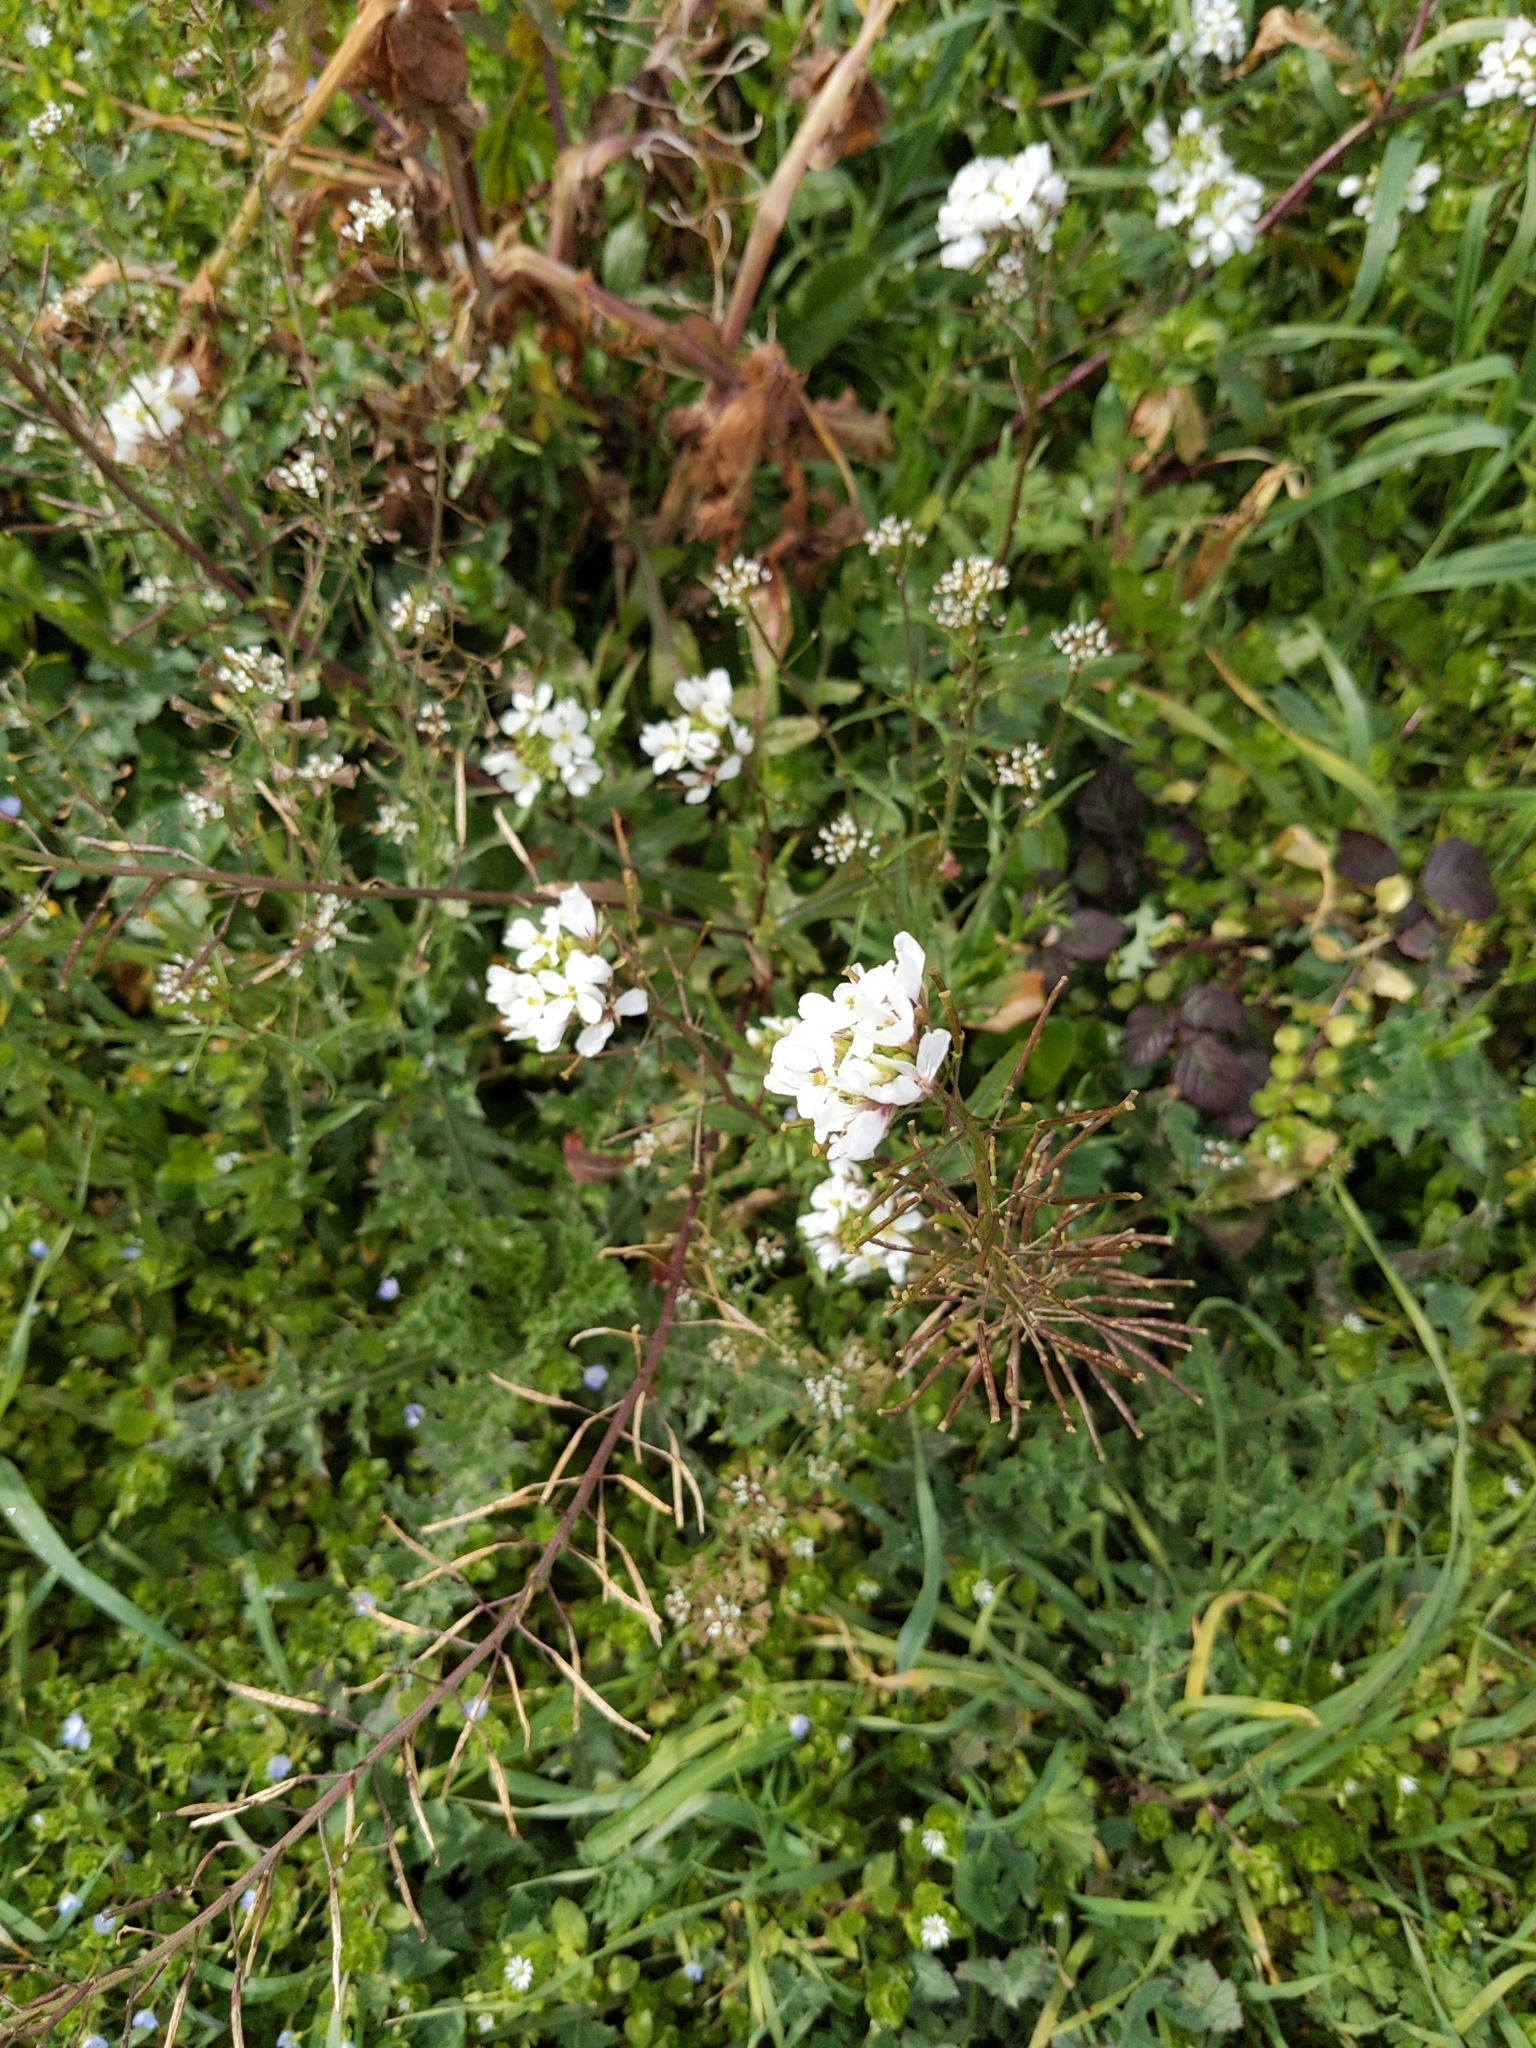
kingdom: Plantae
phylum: Tracheophyta
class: Magnoliopsida
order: Brassicales
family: Brassicaceae
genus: Diplotaxis
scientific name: Diplotaxis erucoides
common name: White rocket
